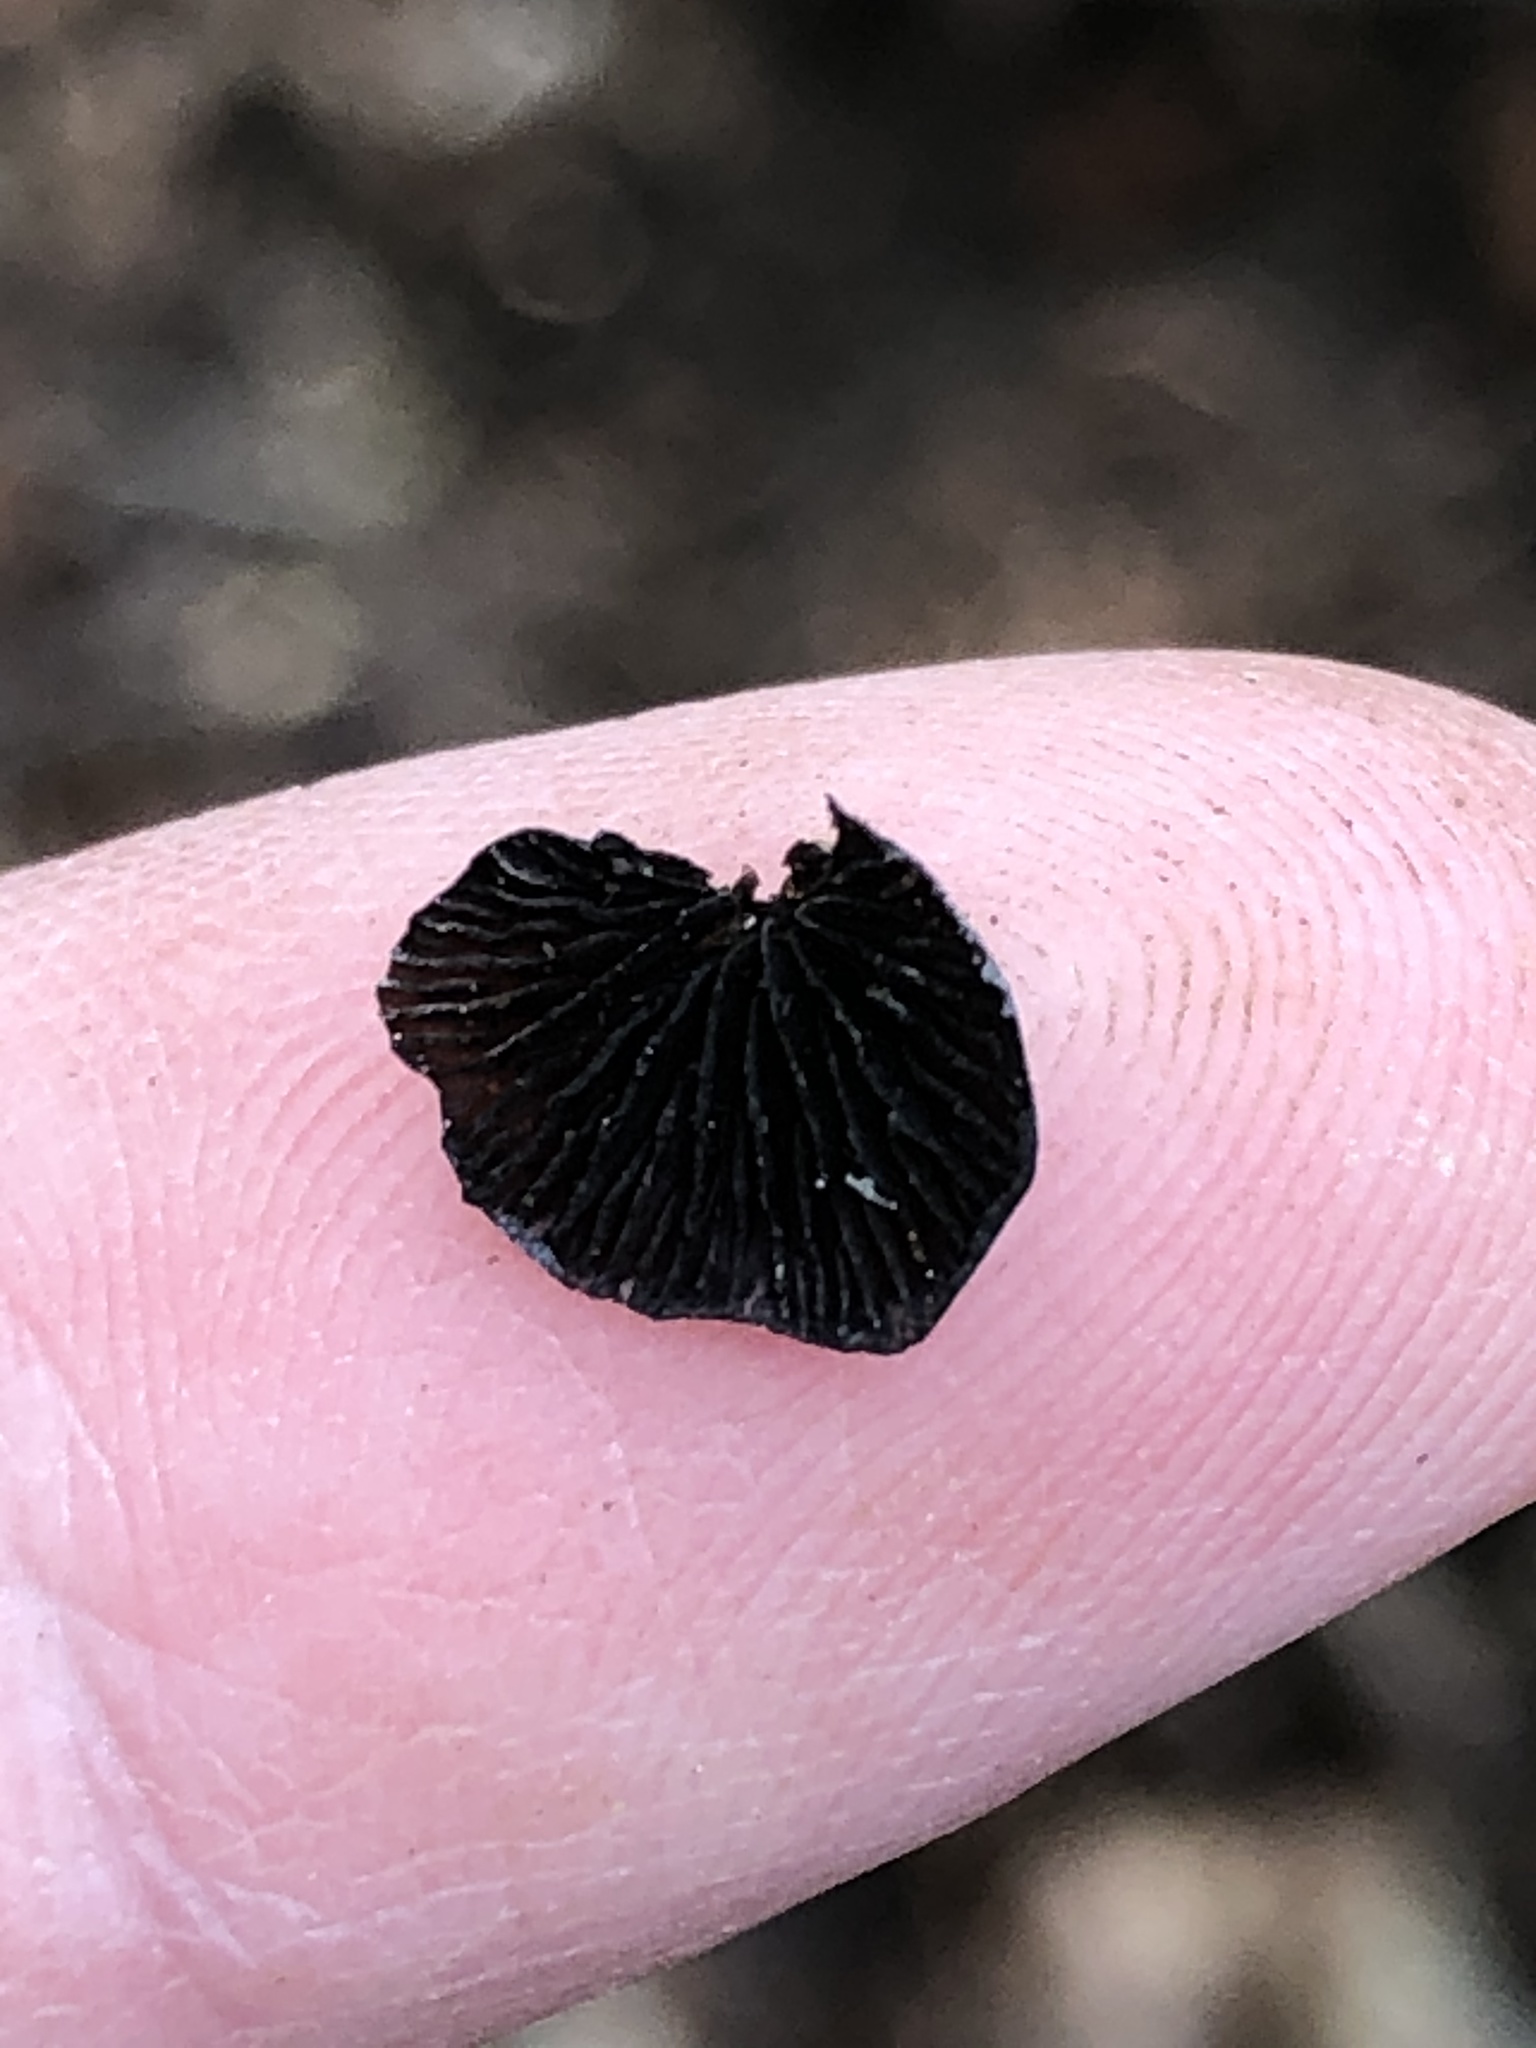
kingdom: Fungi
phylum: Basidiomycota
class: Agaricomycetes
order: Agaricales
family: Pleurotaceae
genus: Resupinatus
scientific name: Resupinatus applicatus
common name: Smoked oysterling
